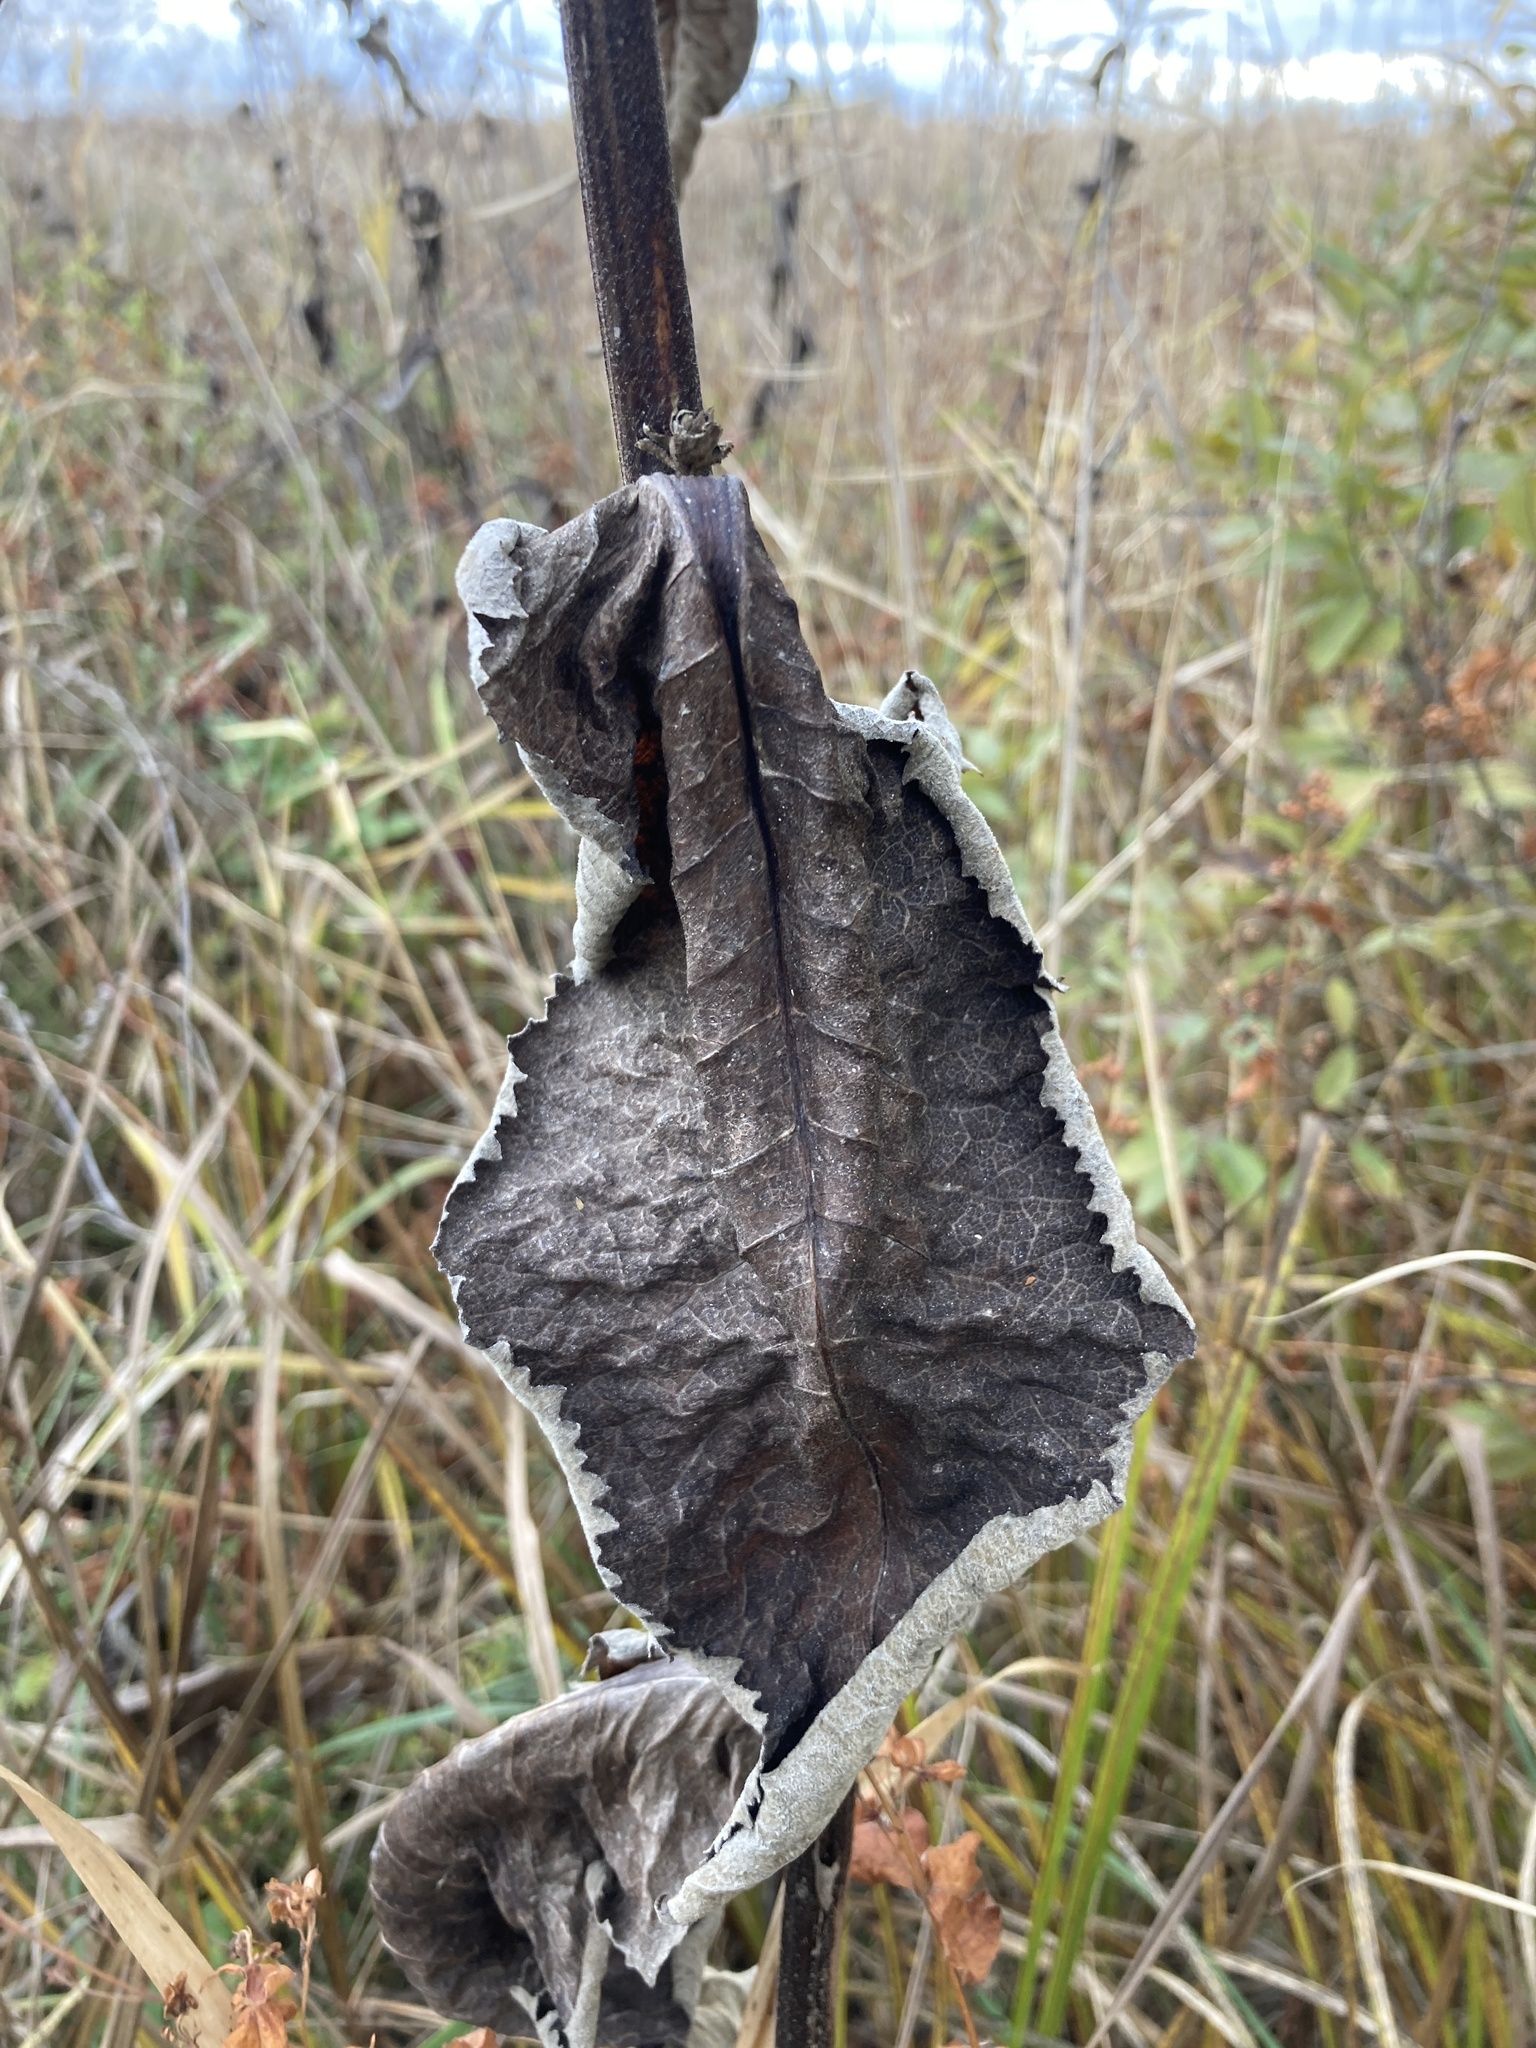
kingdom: Plantae
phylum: Tracheophyta
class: Magnoliopsida
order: Asterales
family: Asteraceae
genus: Inula
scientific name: Inula helenium
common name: Elecampane
